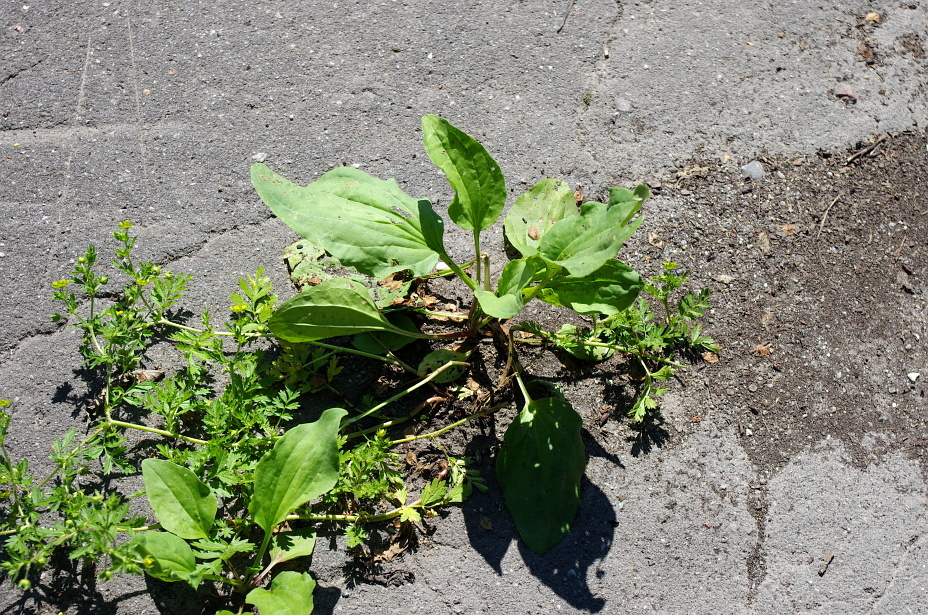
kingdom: Plantae
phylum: Tracheophyta
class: Magnoliopsida
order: Lamiales
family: Plantaginaceae
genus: Plantago
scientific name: Plantago major
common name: Common plantain
